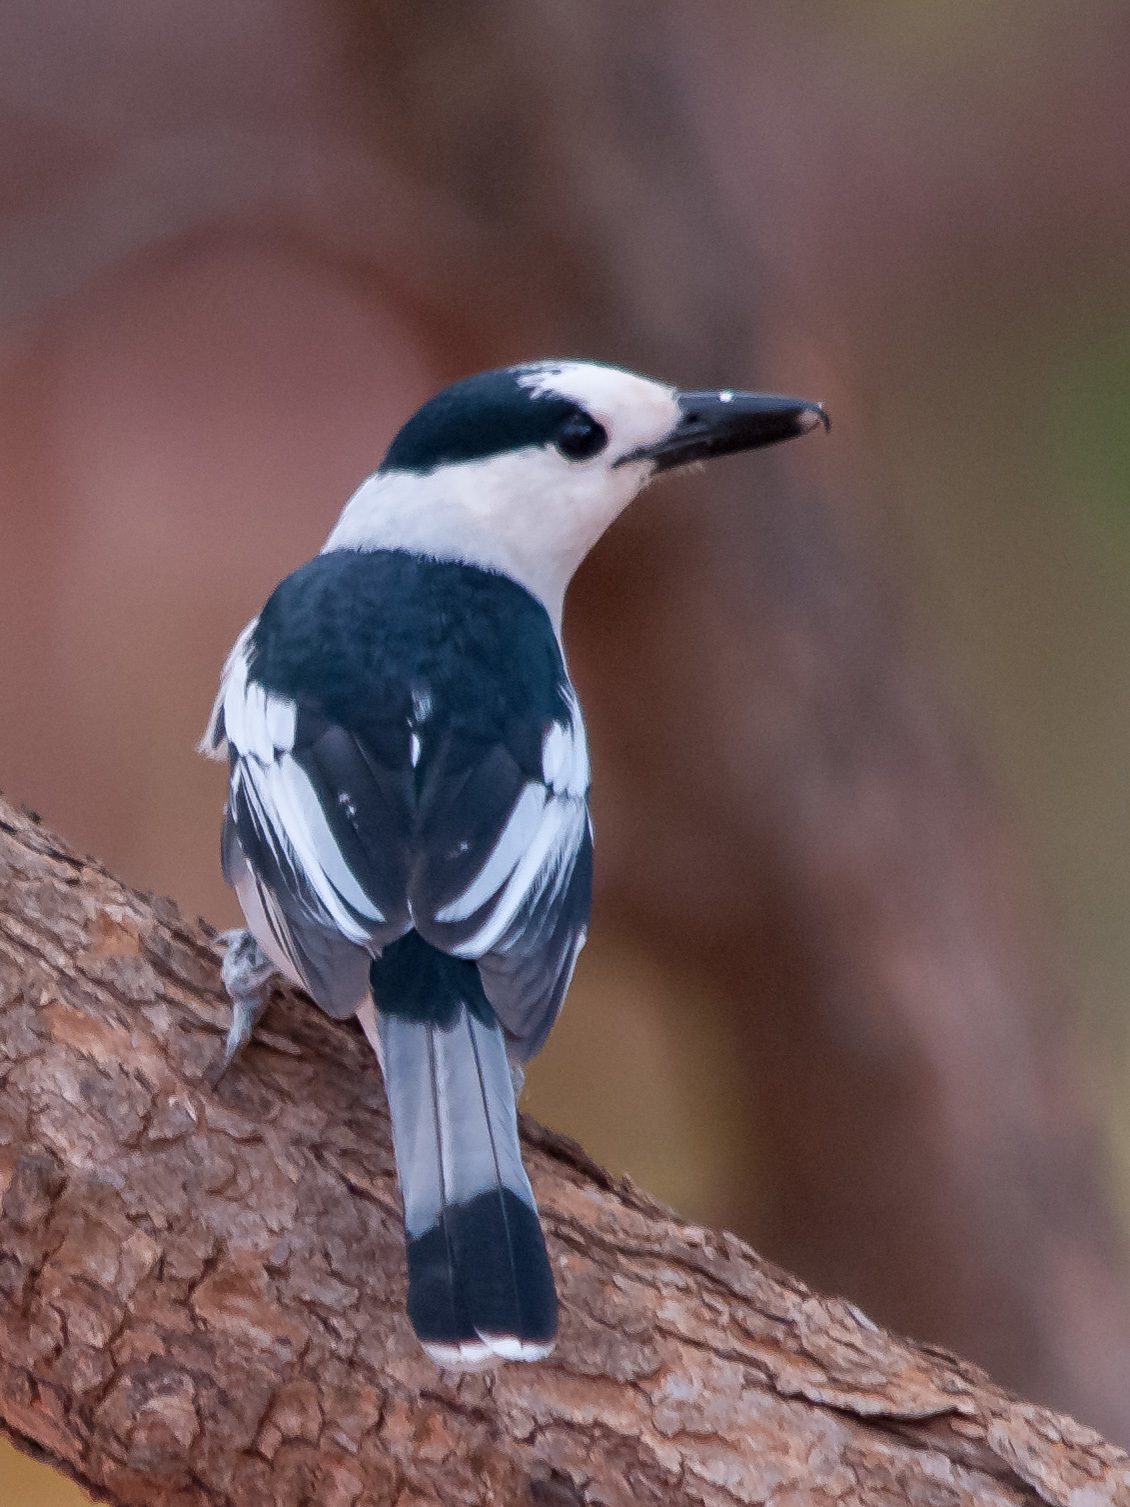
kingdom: Animalia
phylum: Chordata
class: Aves
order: Passeriformes
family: Vangidae
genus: Vanga
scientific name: Vanga curvirostris
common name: Hook-billed vanga
